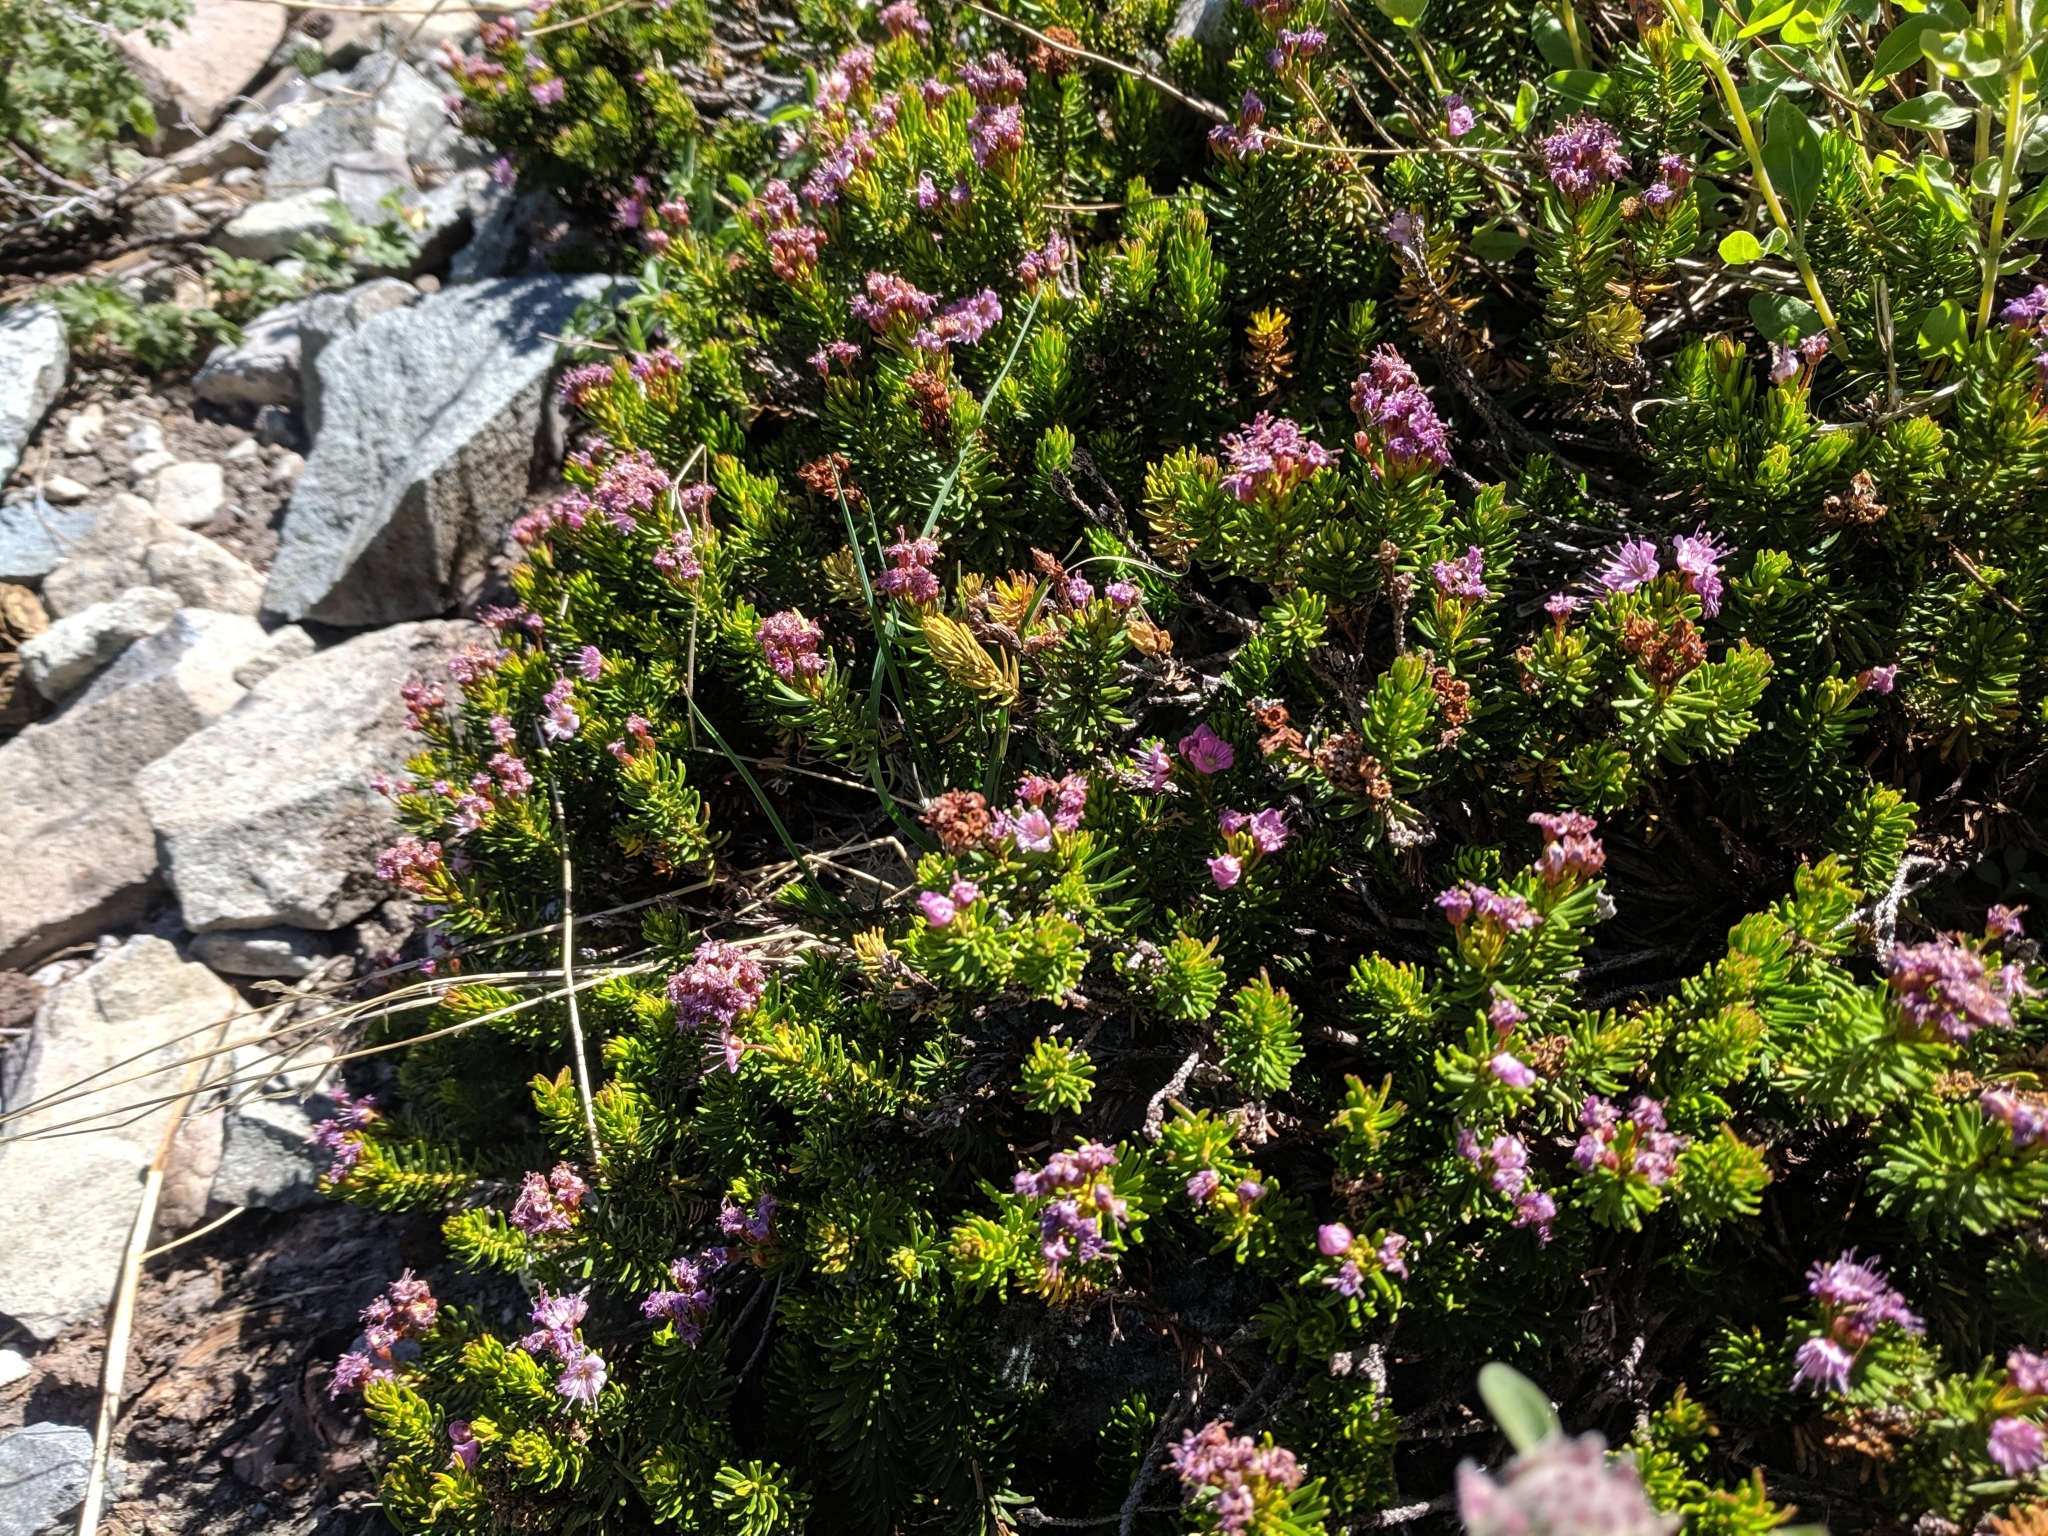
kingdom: Plantae
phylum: Tracheophyta
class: Magnoliopsida
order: Ericales
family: Ericaceae
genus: Phyllodoce
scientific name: Phyllodoce breweri
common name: Brewer's mountain-heather
